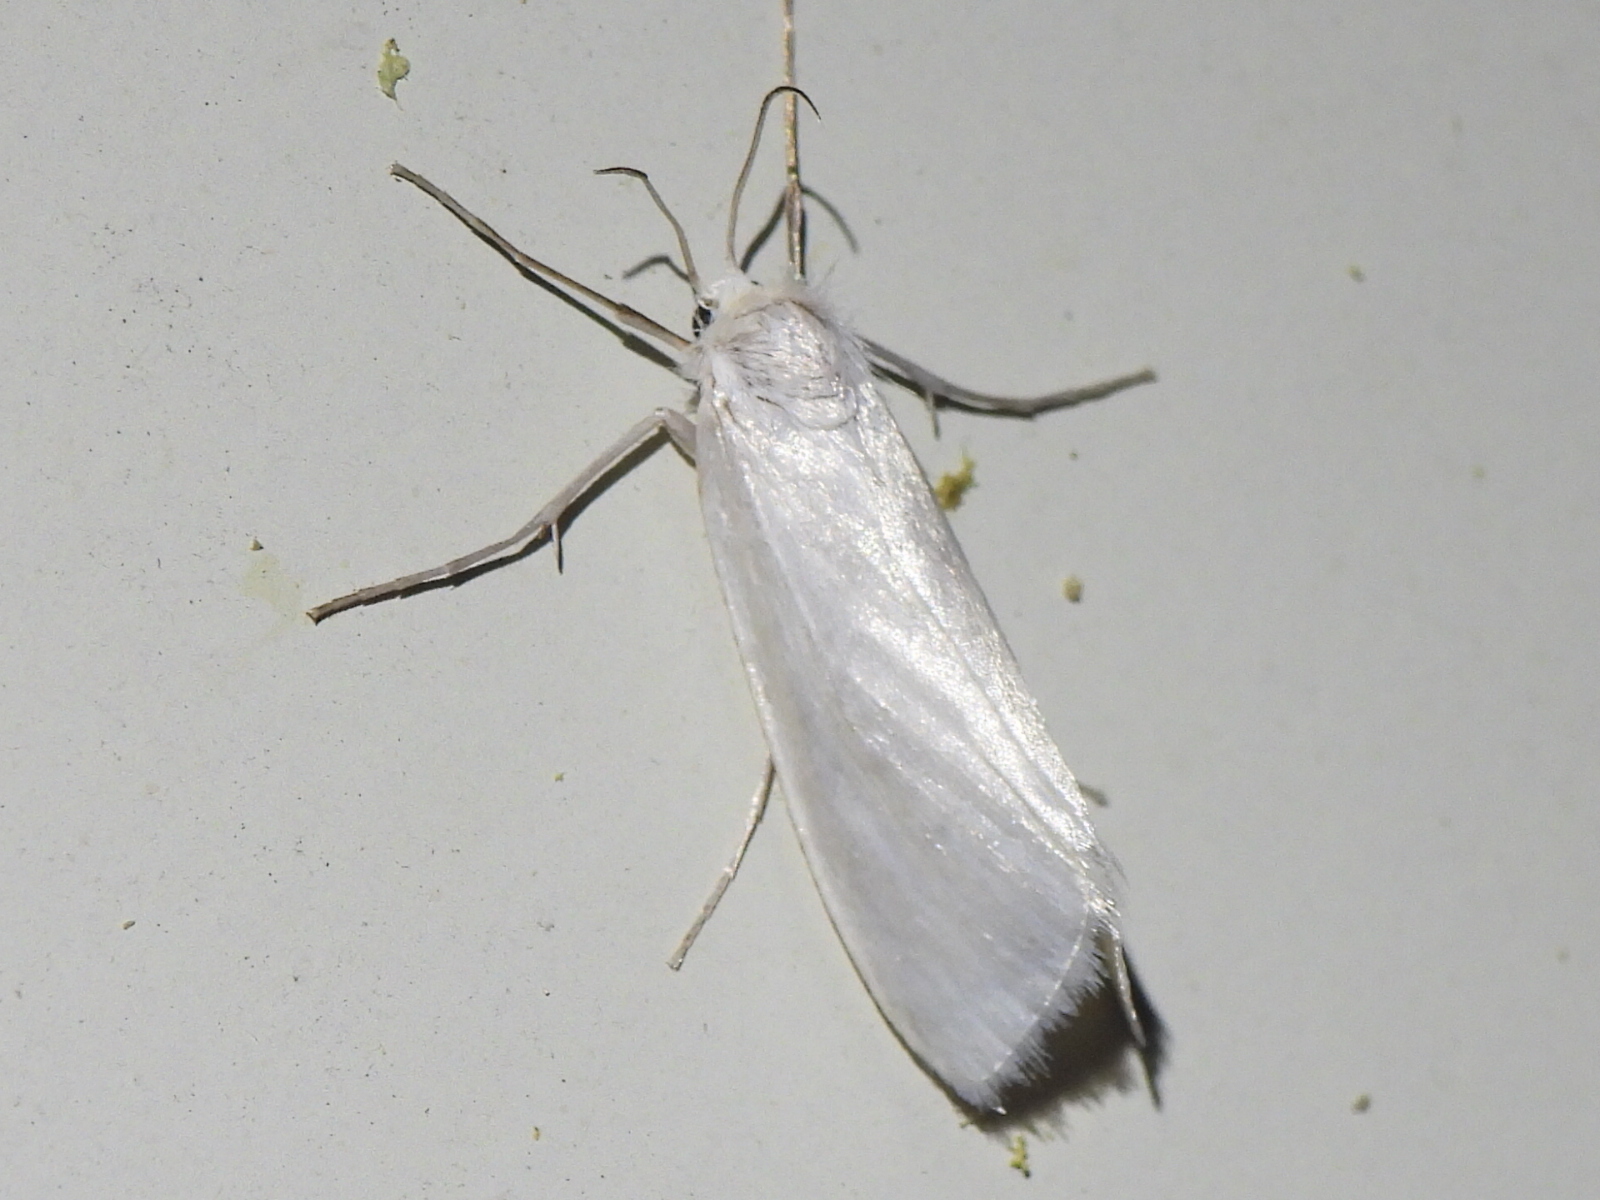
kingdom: Animalia
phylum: Arthropoda
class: Insecta
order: Lepidoptera
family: Crambidae
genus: Rupela
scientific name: Rupela tinctella
